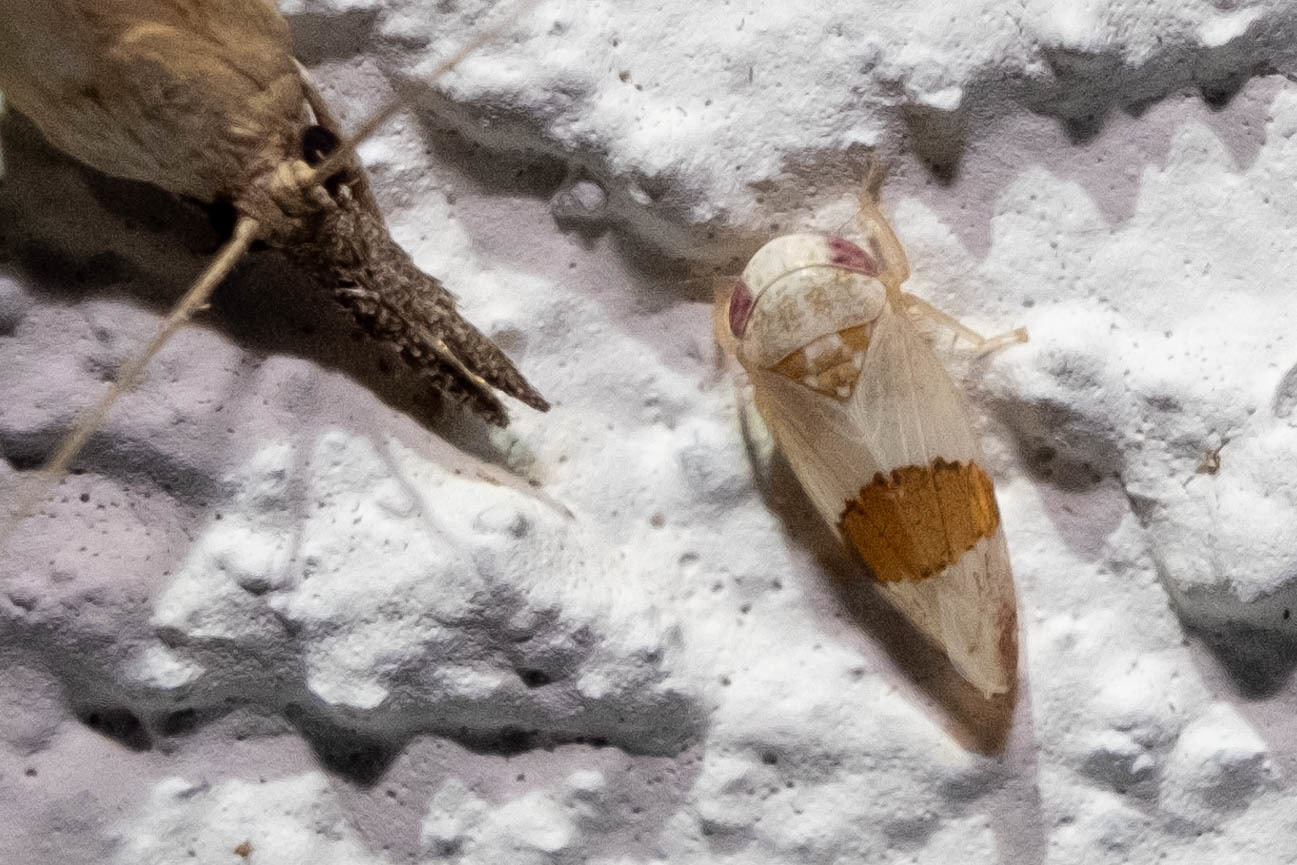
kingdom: Animalia
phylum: Arthropoda
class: Insecta
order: Hemiptera
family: Cicadellidae
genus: Norvellina
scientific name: Norvellina seminuda
